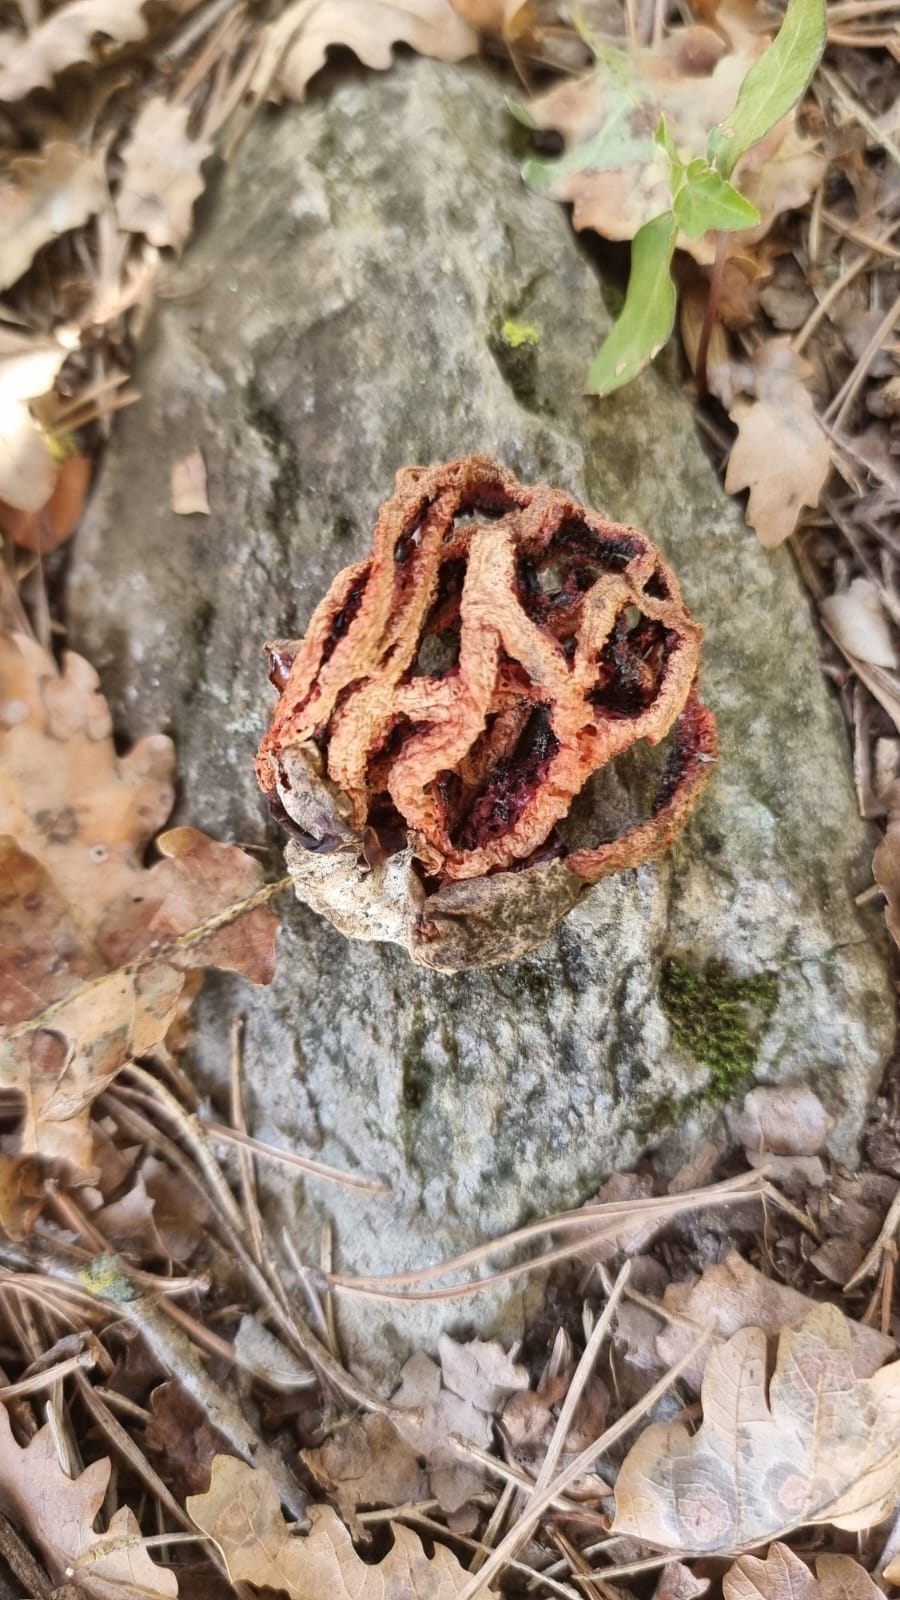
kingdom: Fungi
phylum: Basidiomycota
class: Agaricomycetes
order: Phallales
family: Phallaceae
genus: Clathrus
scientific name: Clathrus ruber
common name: Red cage
